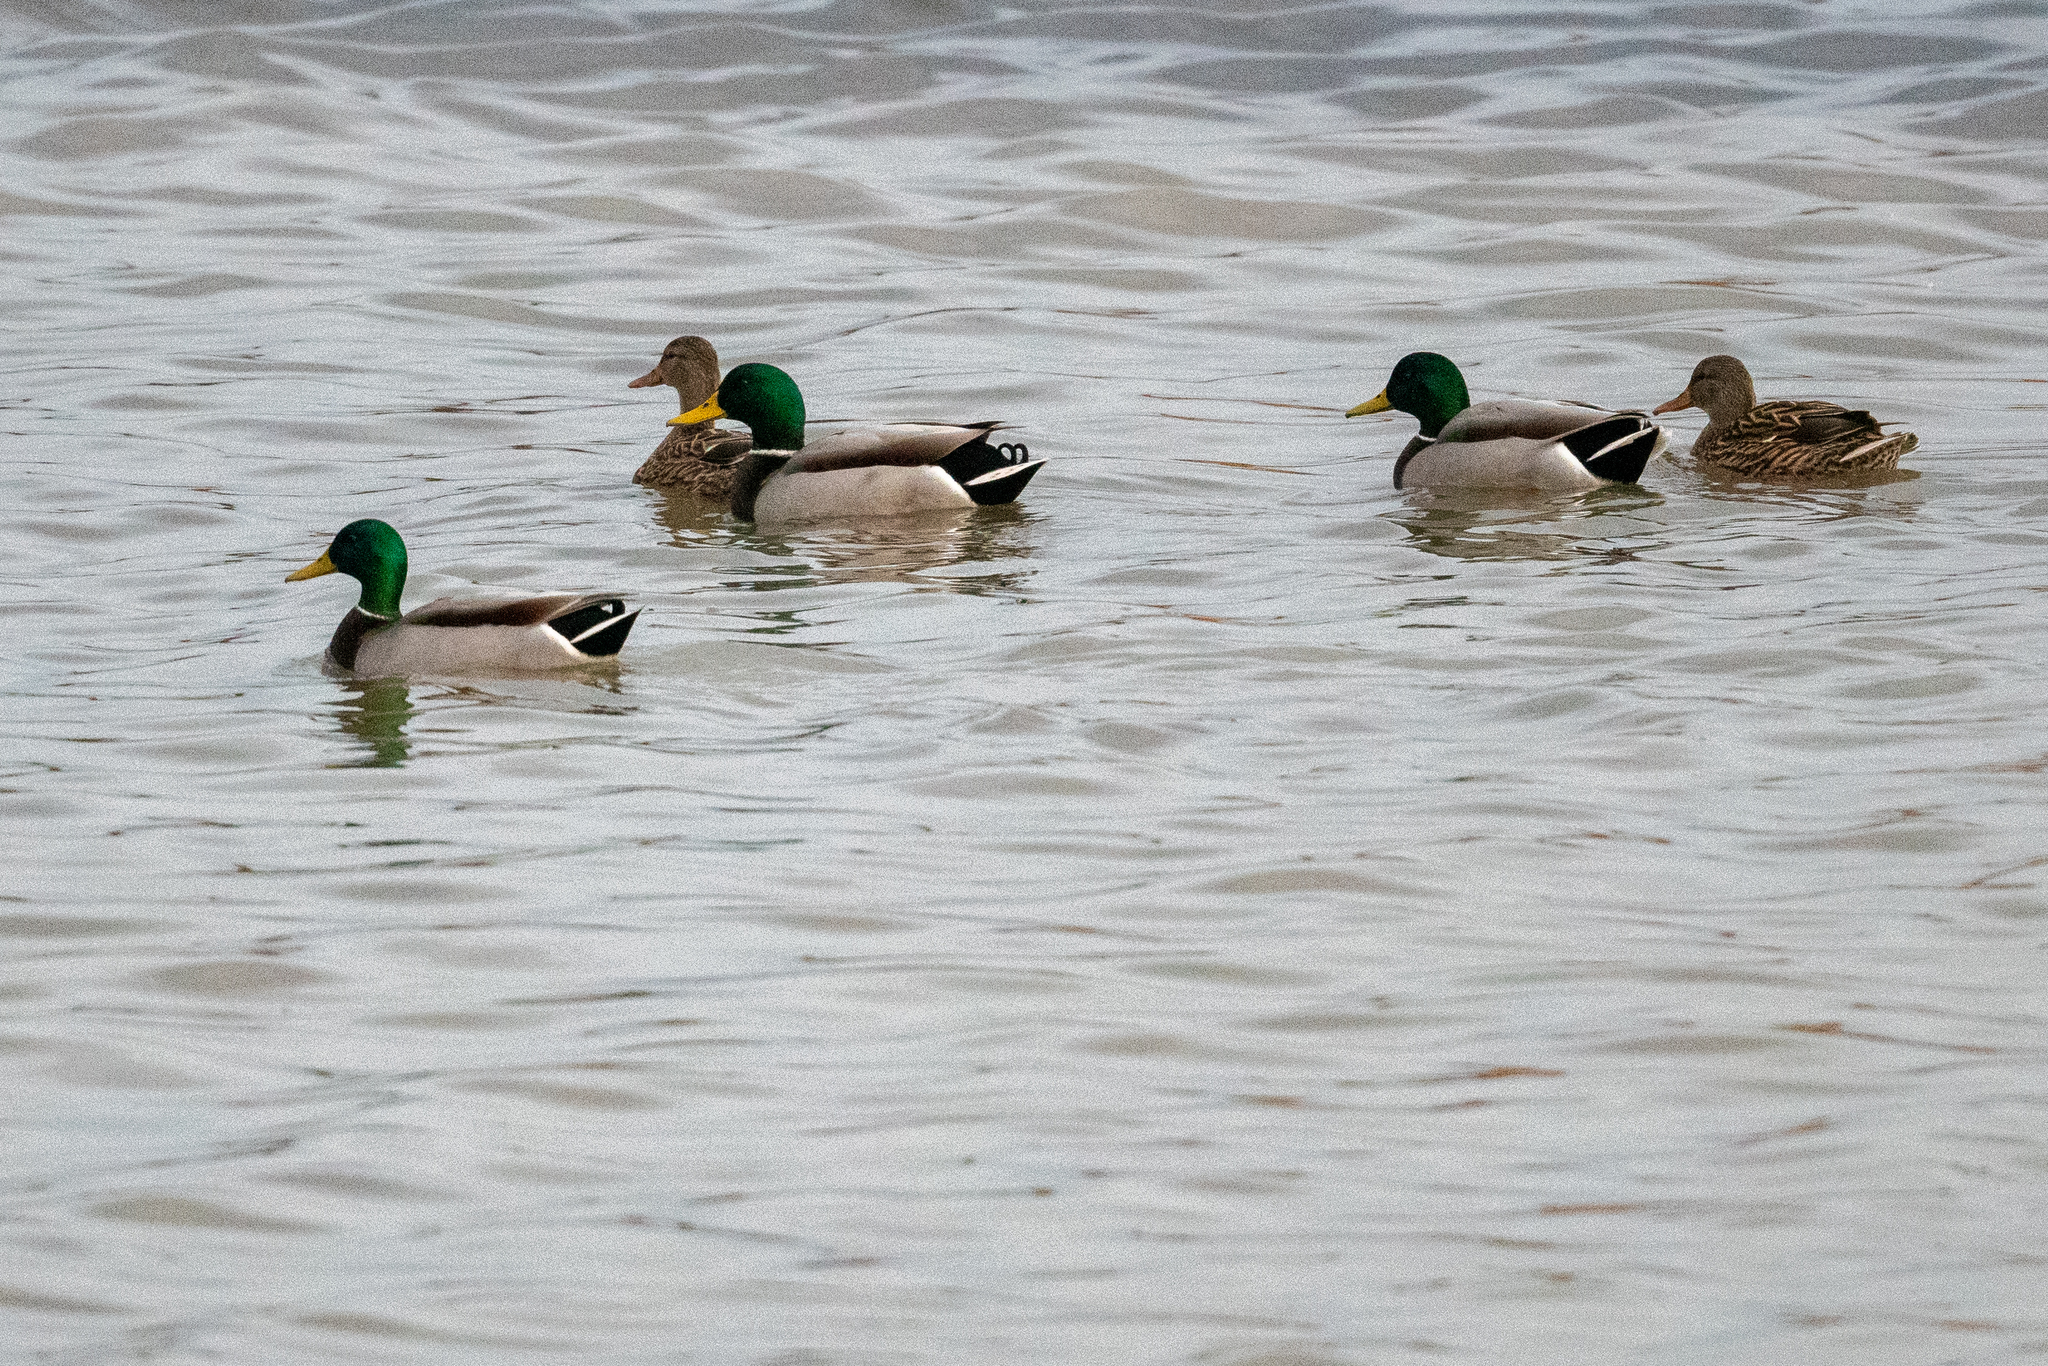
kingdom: Animalia
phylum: Chordata
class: Aves
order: Anseriformes
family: Anatidae
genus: Anas
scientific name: Anas platyrhynchos
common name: Mallard
